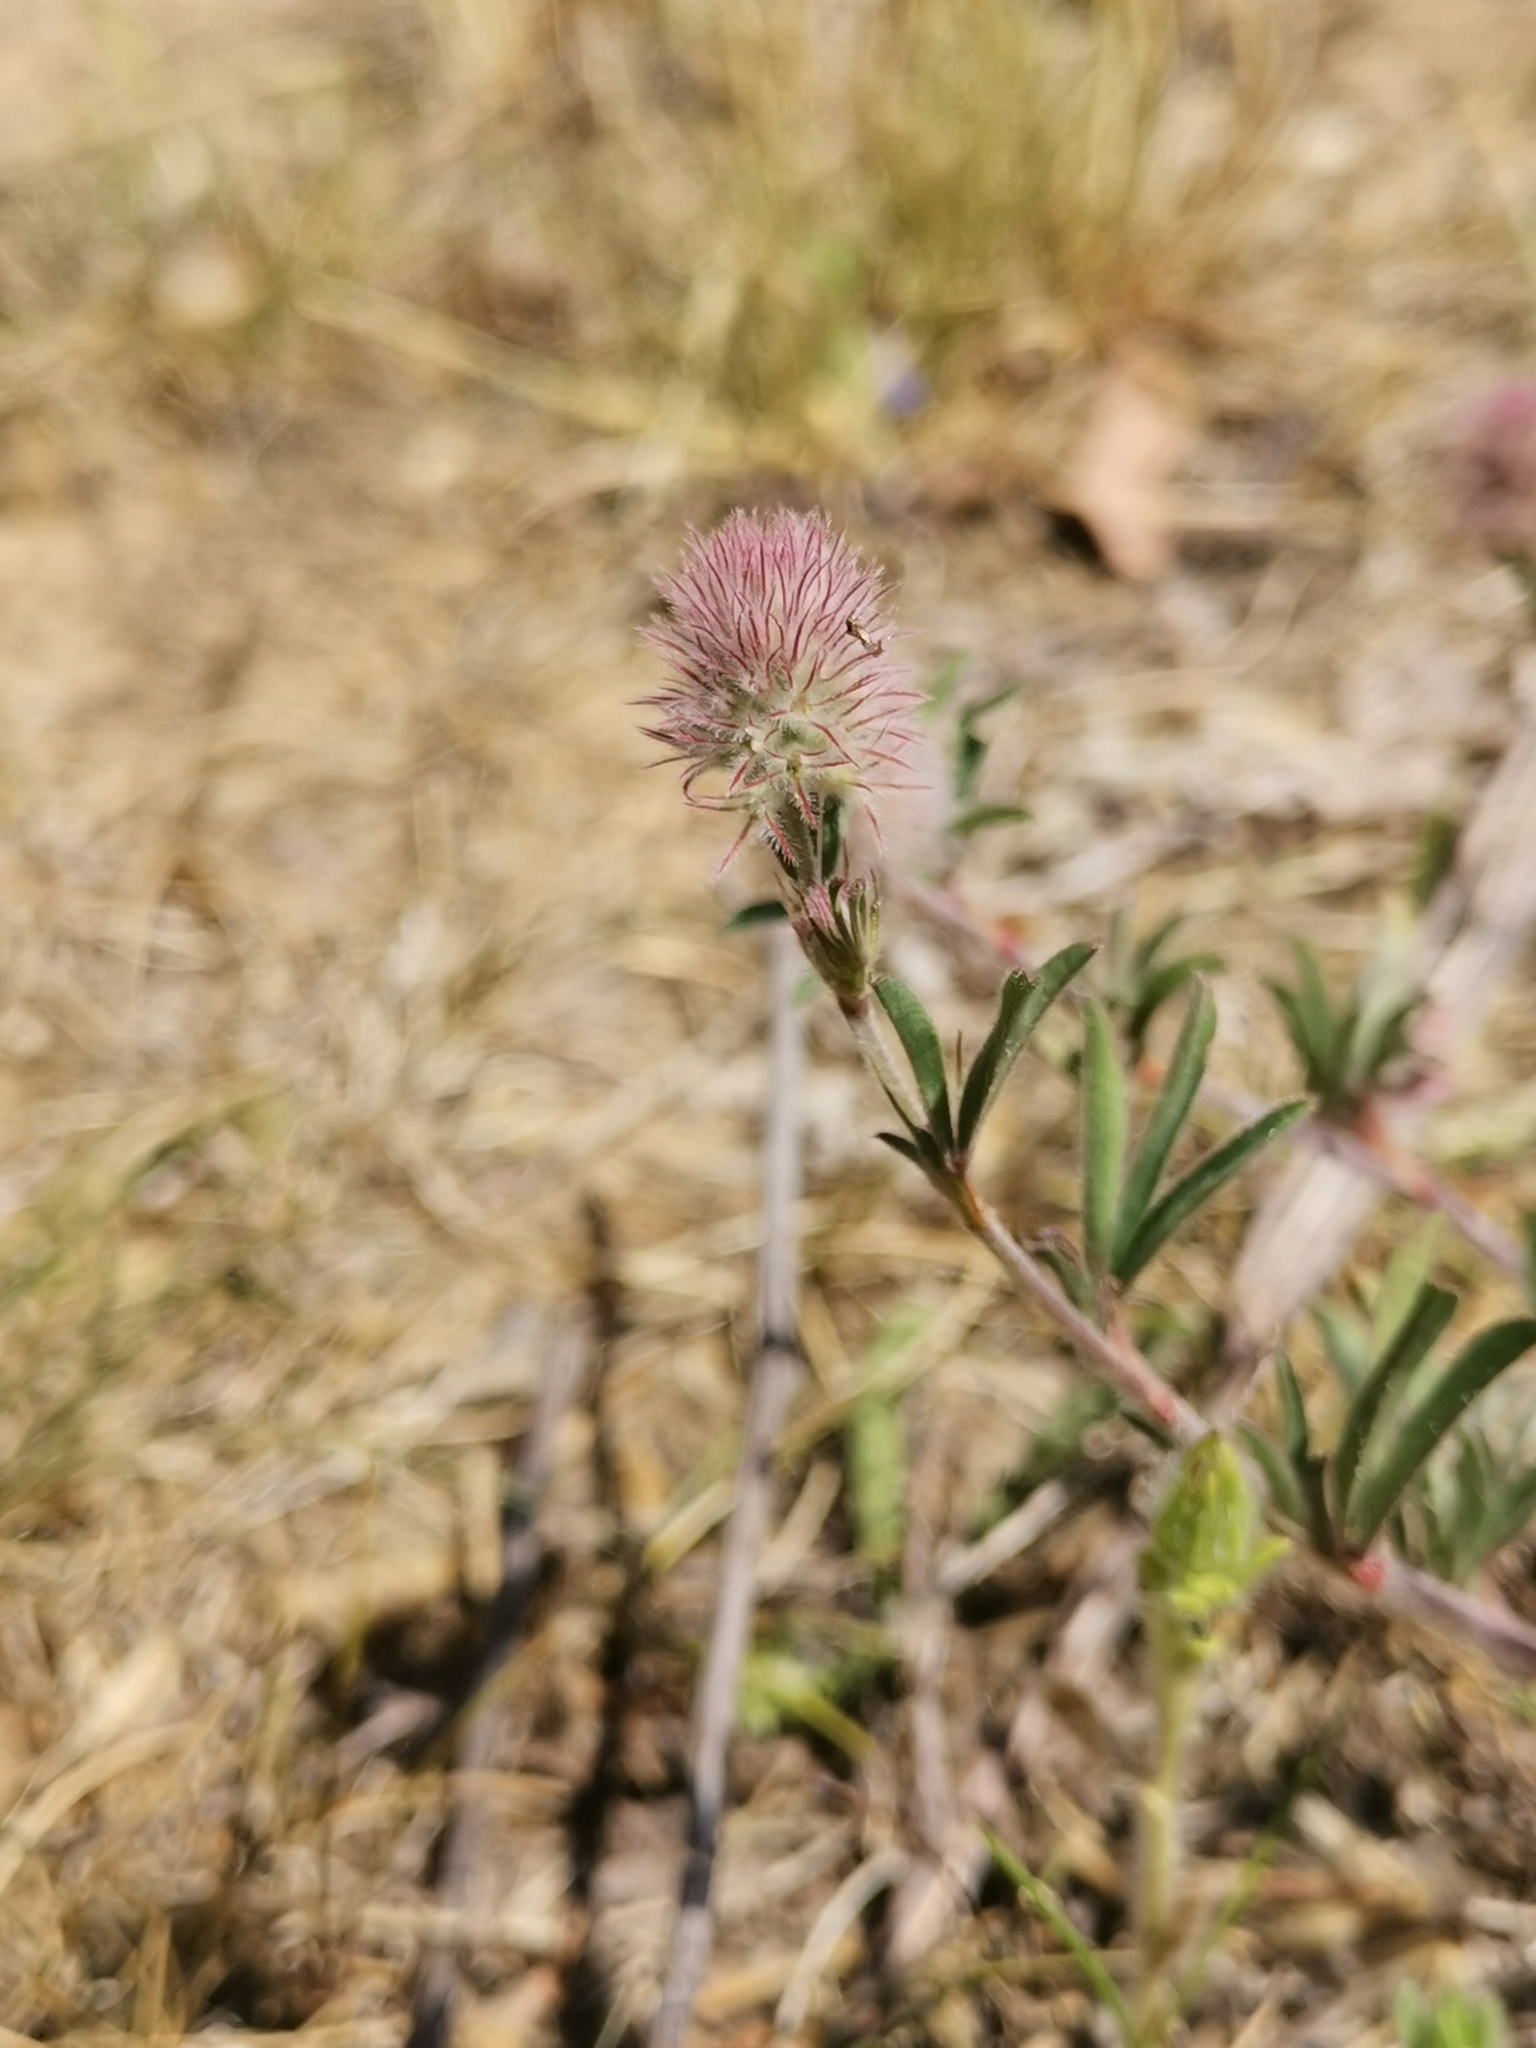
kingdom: Plantae
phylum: Tracheophyta
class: Magnoliopsida
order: Fabales
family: Fabaceae
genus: Trifolium
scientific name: Trifolium arvense
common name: Hare's-foot clover
